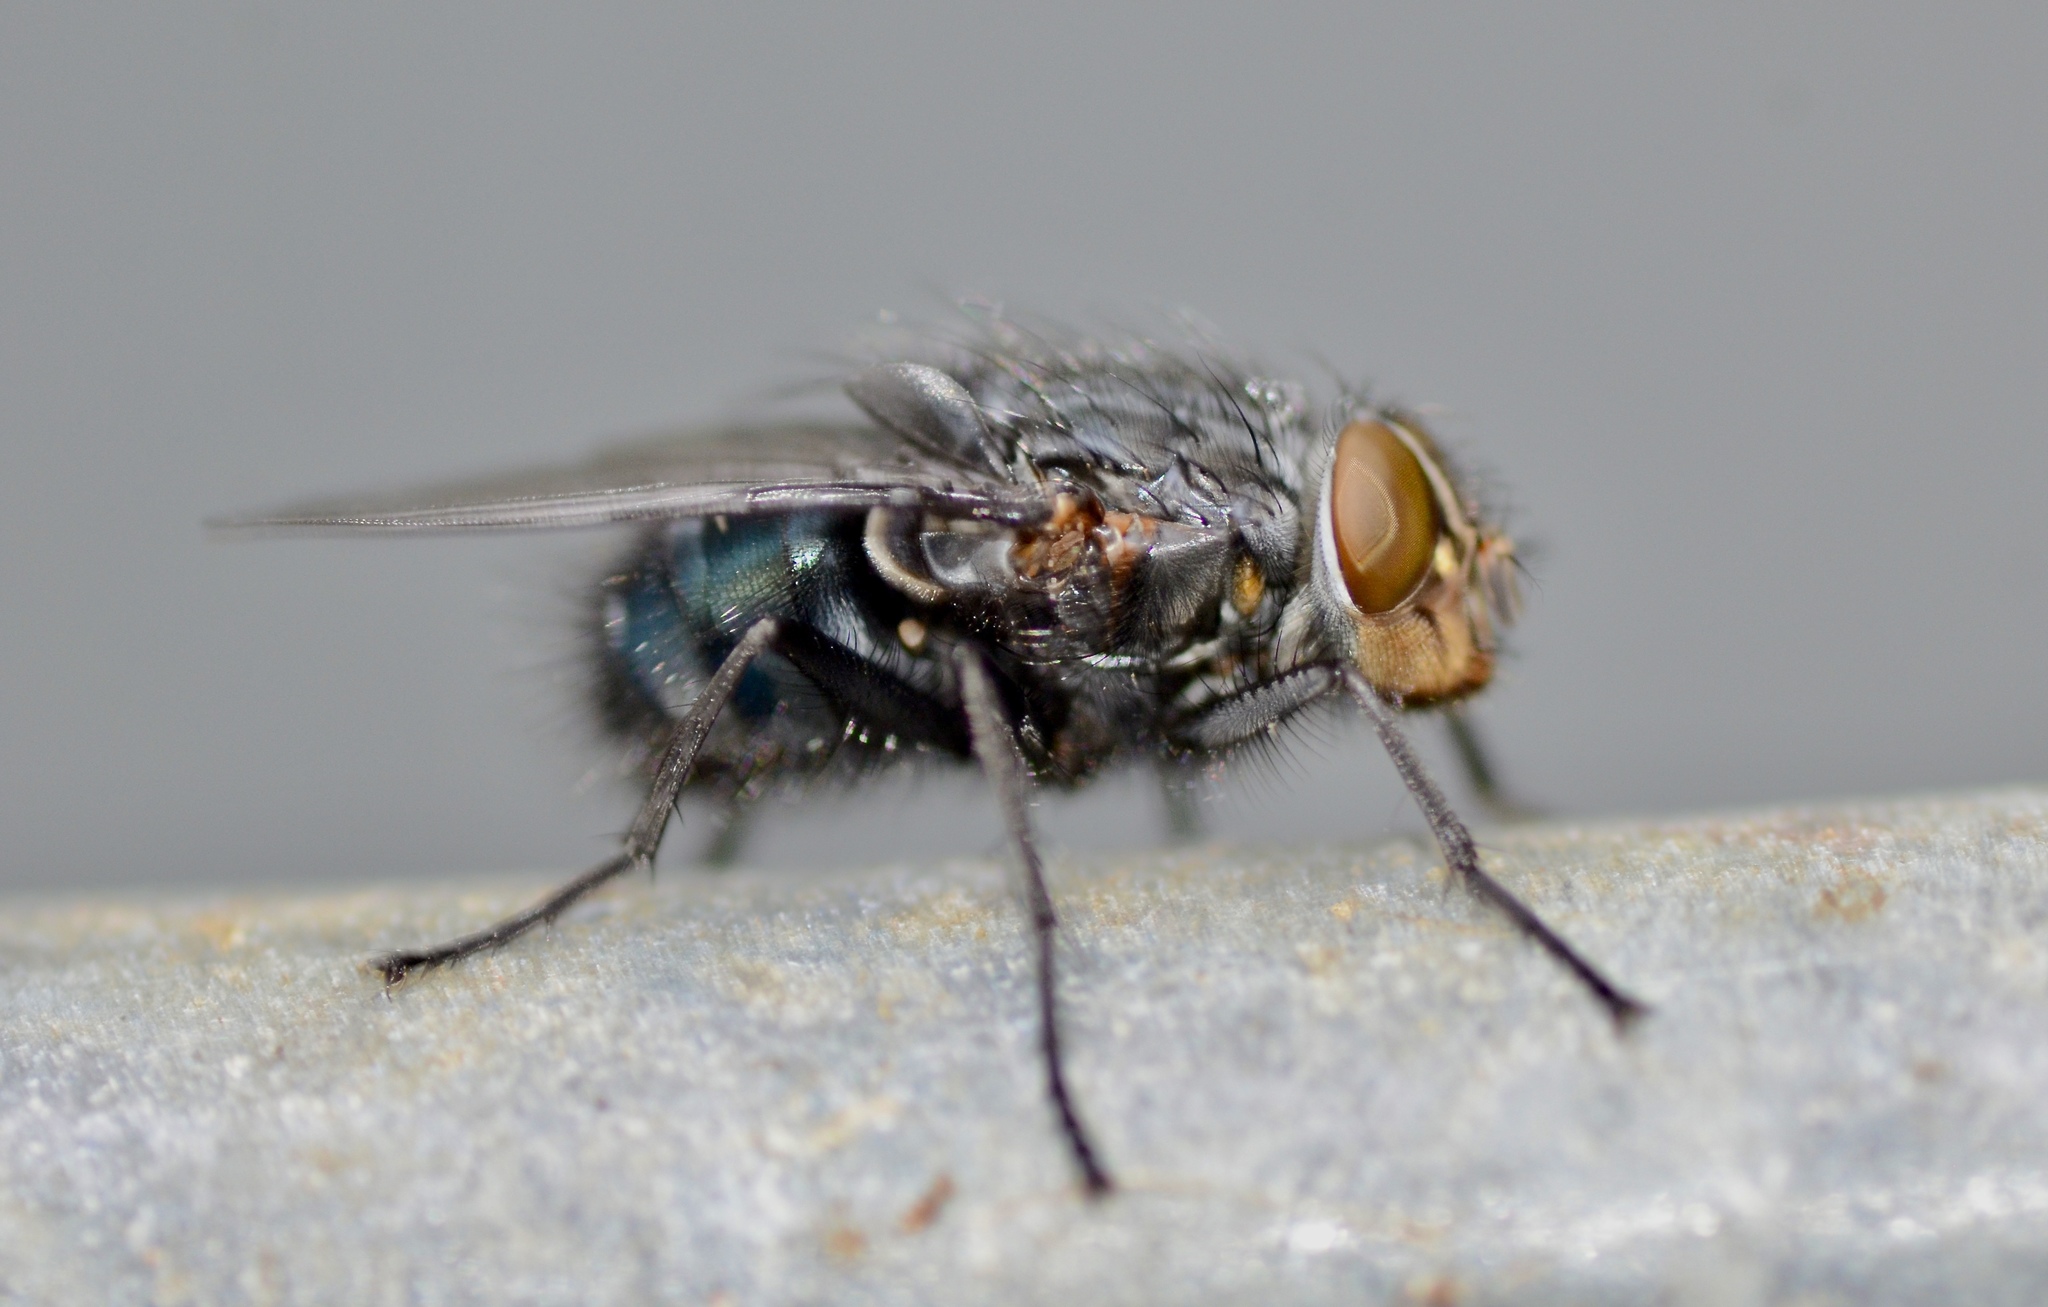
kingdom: Animalia
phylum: Arthropoda
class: Insecta
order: Diptera
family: Calliphoridae
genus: Calliphora
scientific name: Calliphora vicina
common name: Common blow flie
